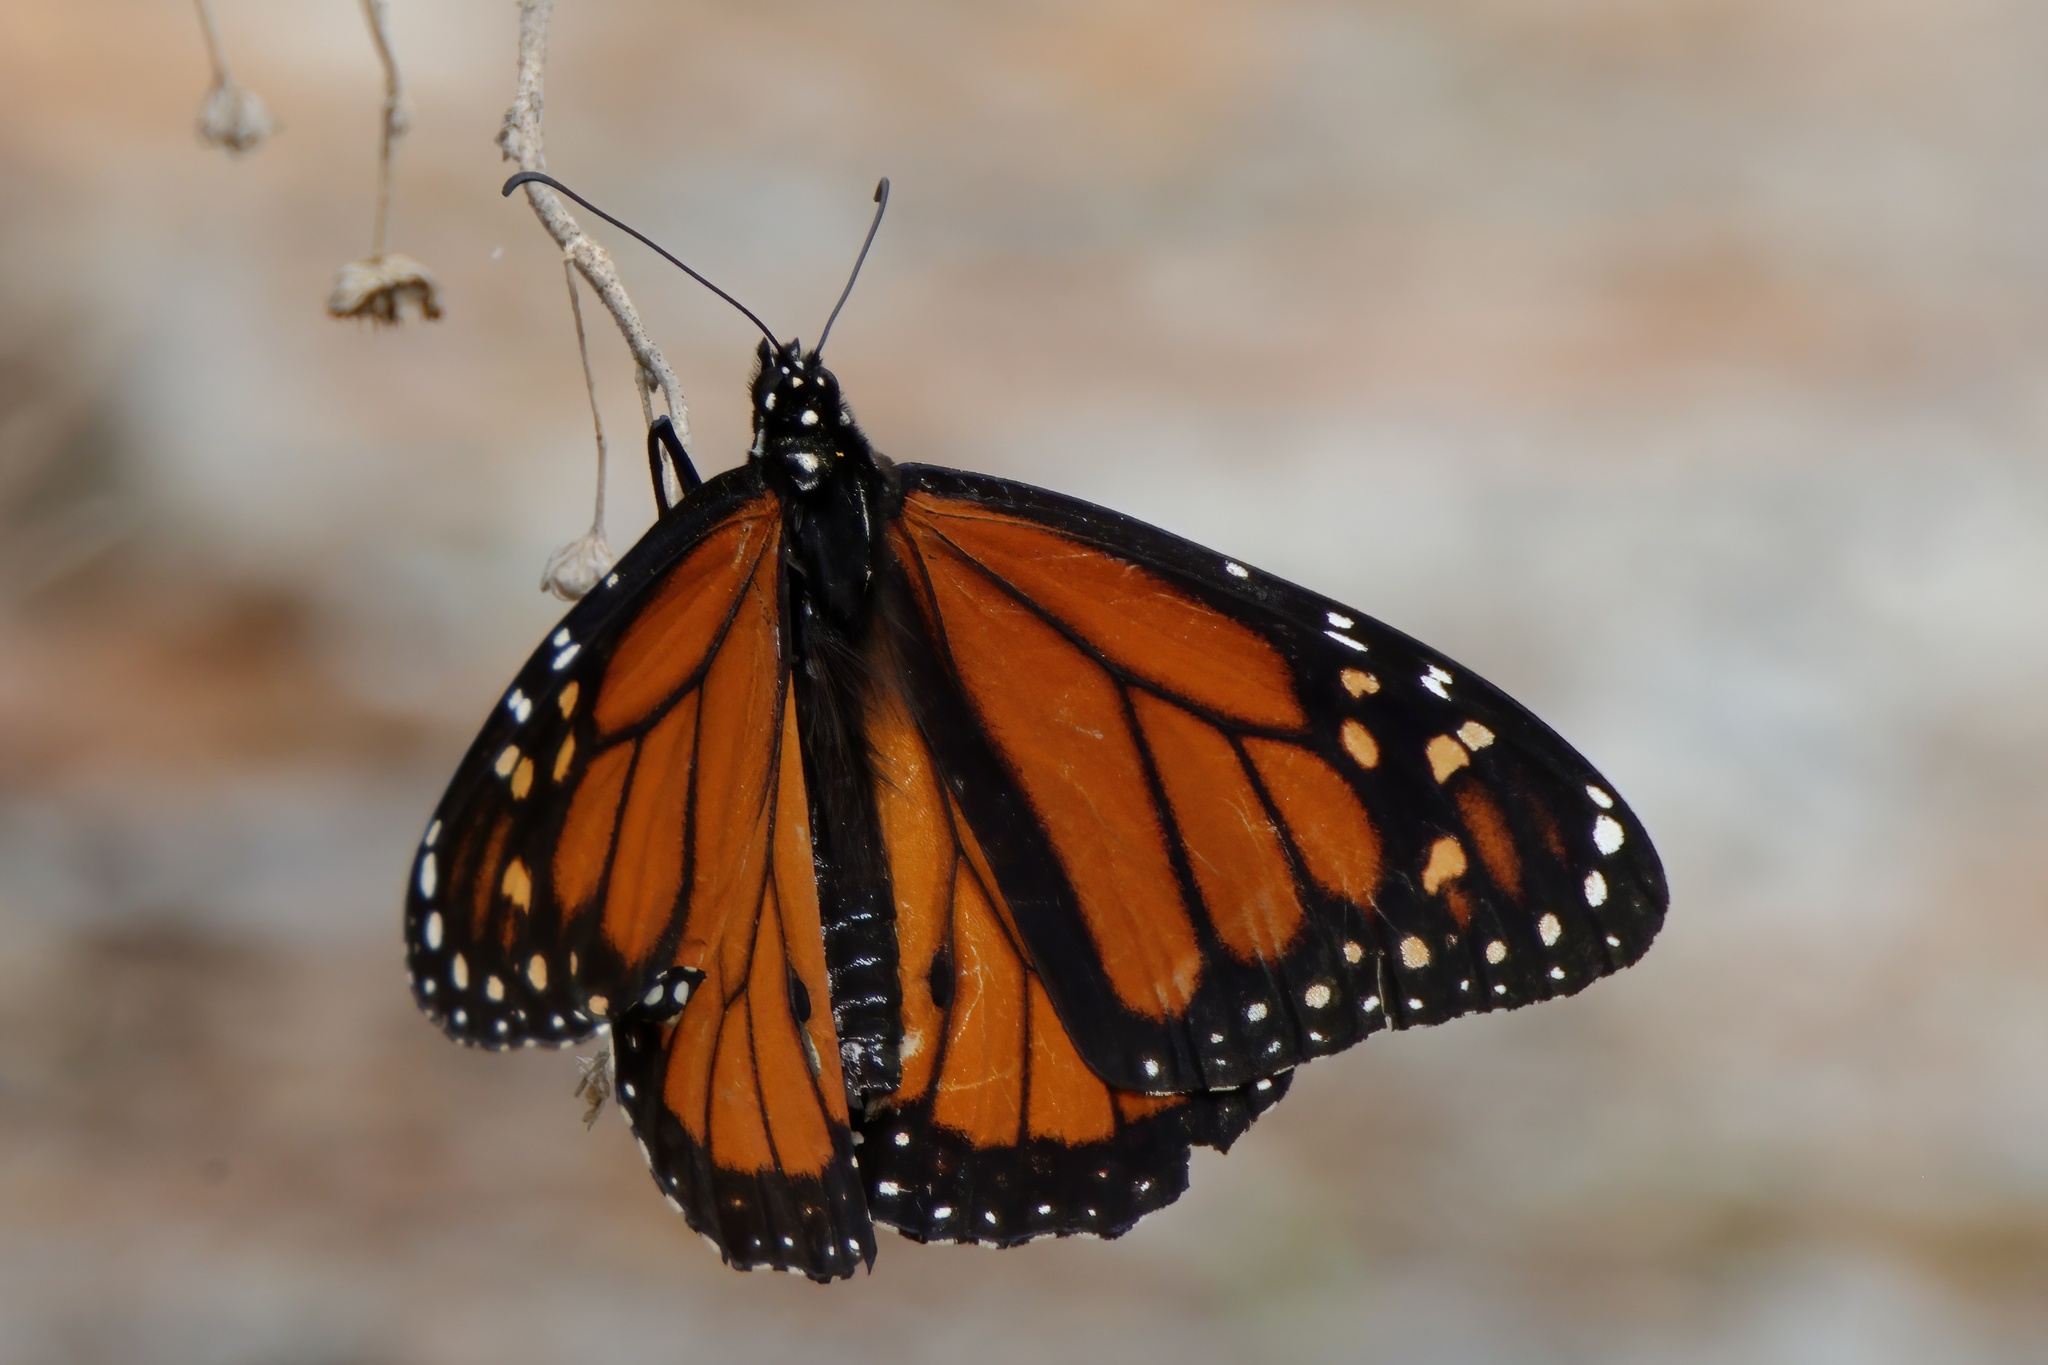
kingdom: Animalia
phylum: Arthropoda
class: Insecta
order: Lepidoptera
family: Nymphalidae
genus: Danaus
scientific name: Danaus plexippus
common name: Monarch
